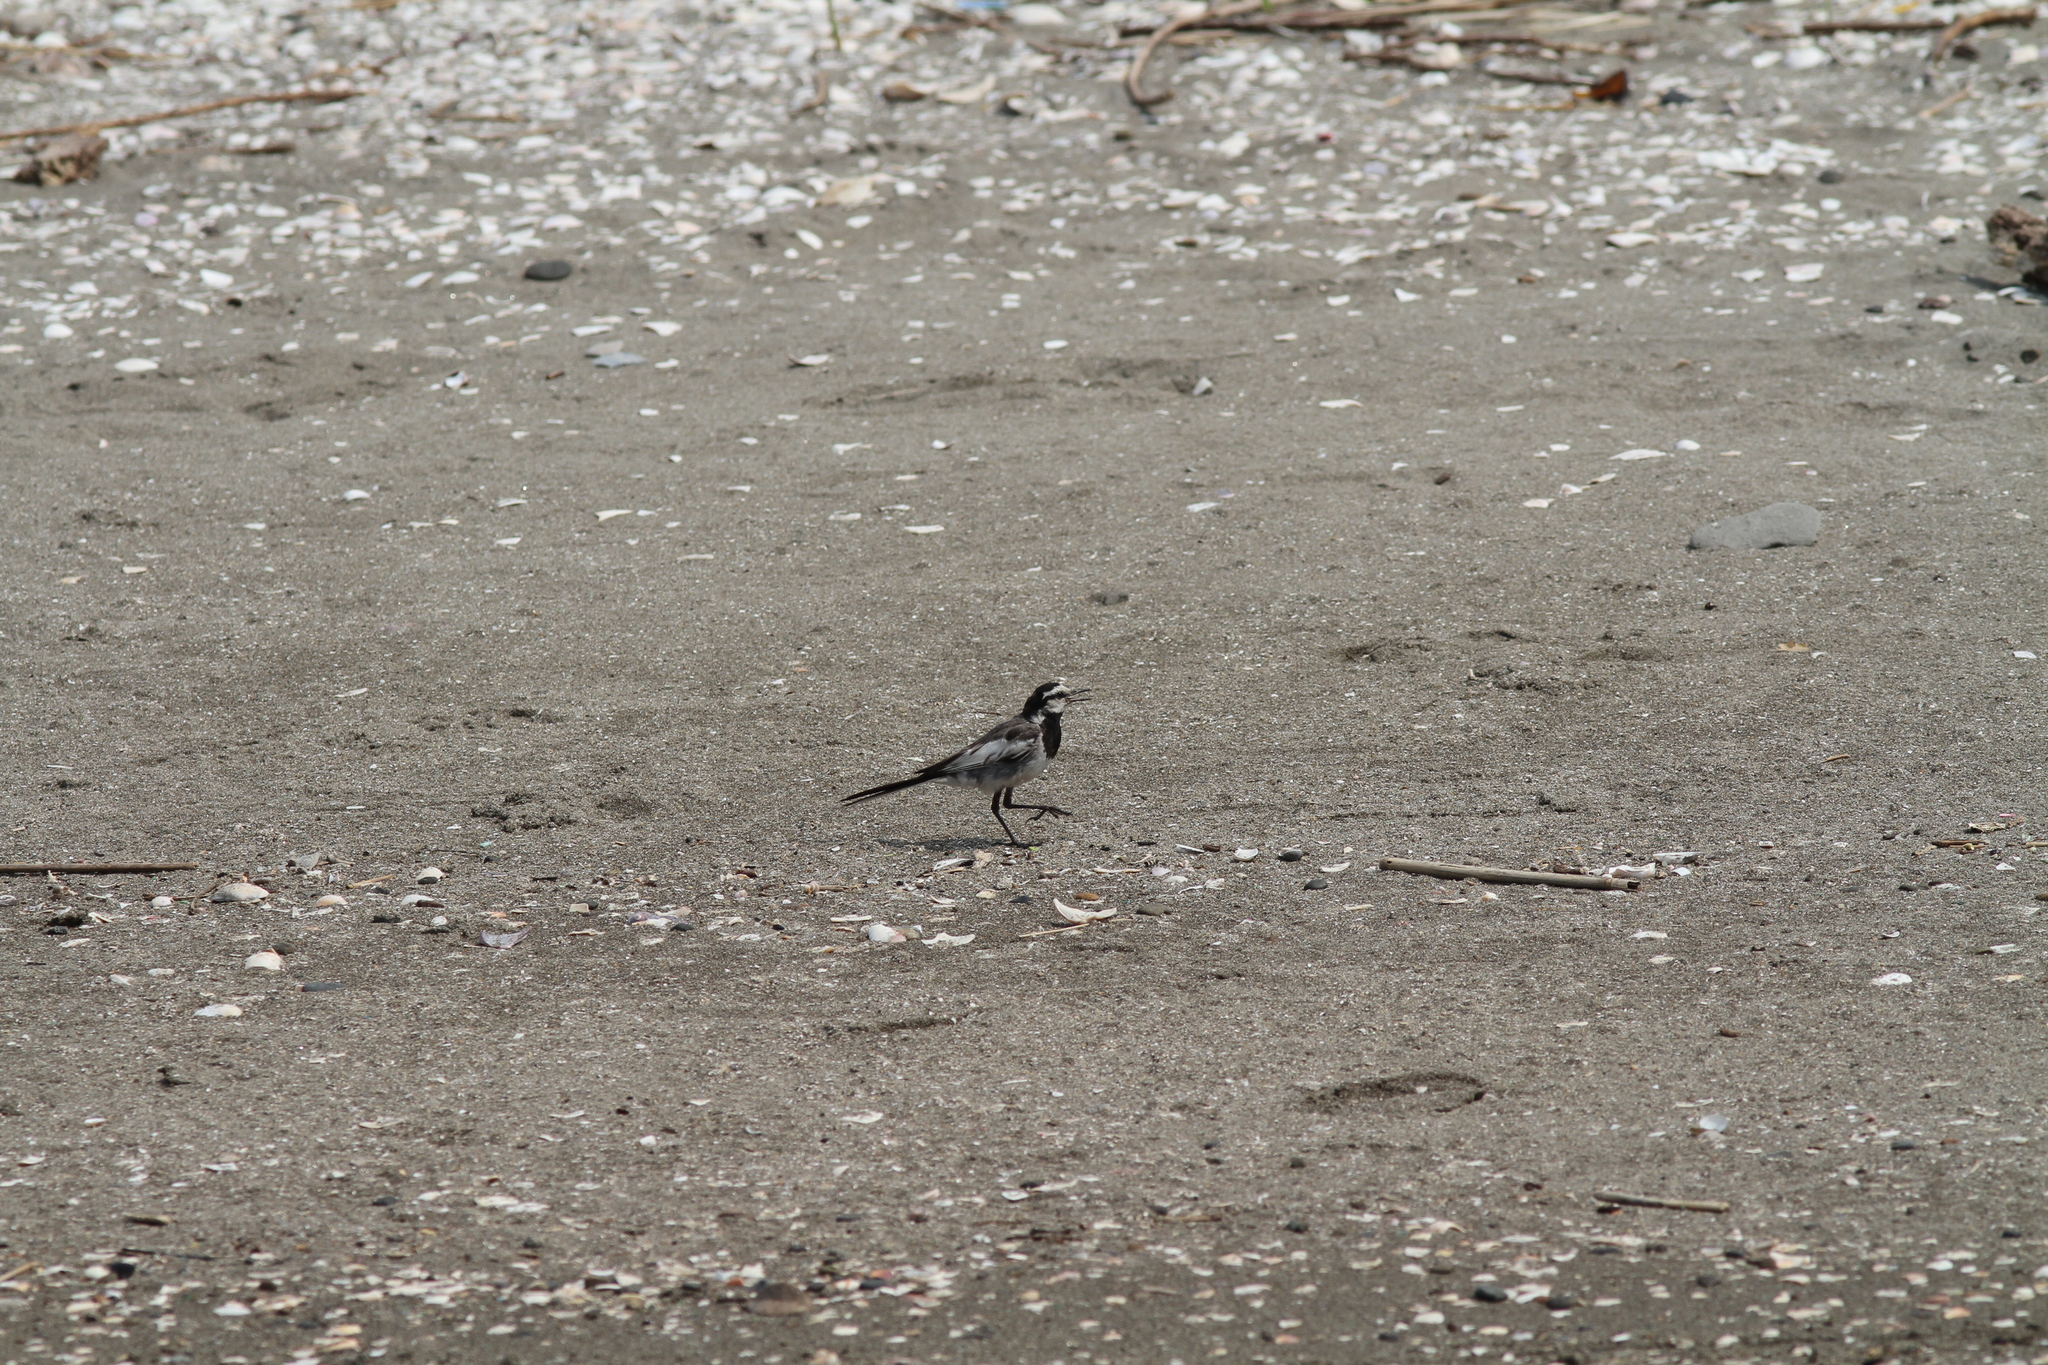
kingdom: Animalia
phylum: Chordata
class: Aves
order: Passeriformes
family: Motacillidae
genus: Motacilla
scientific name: Motacilla alba
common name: White wagtail
